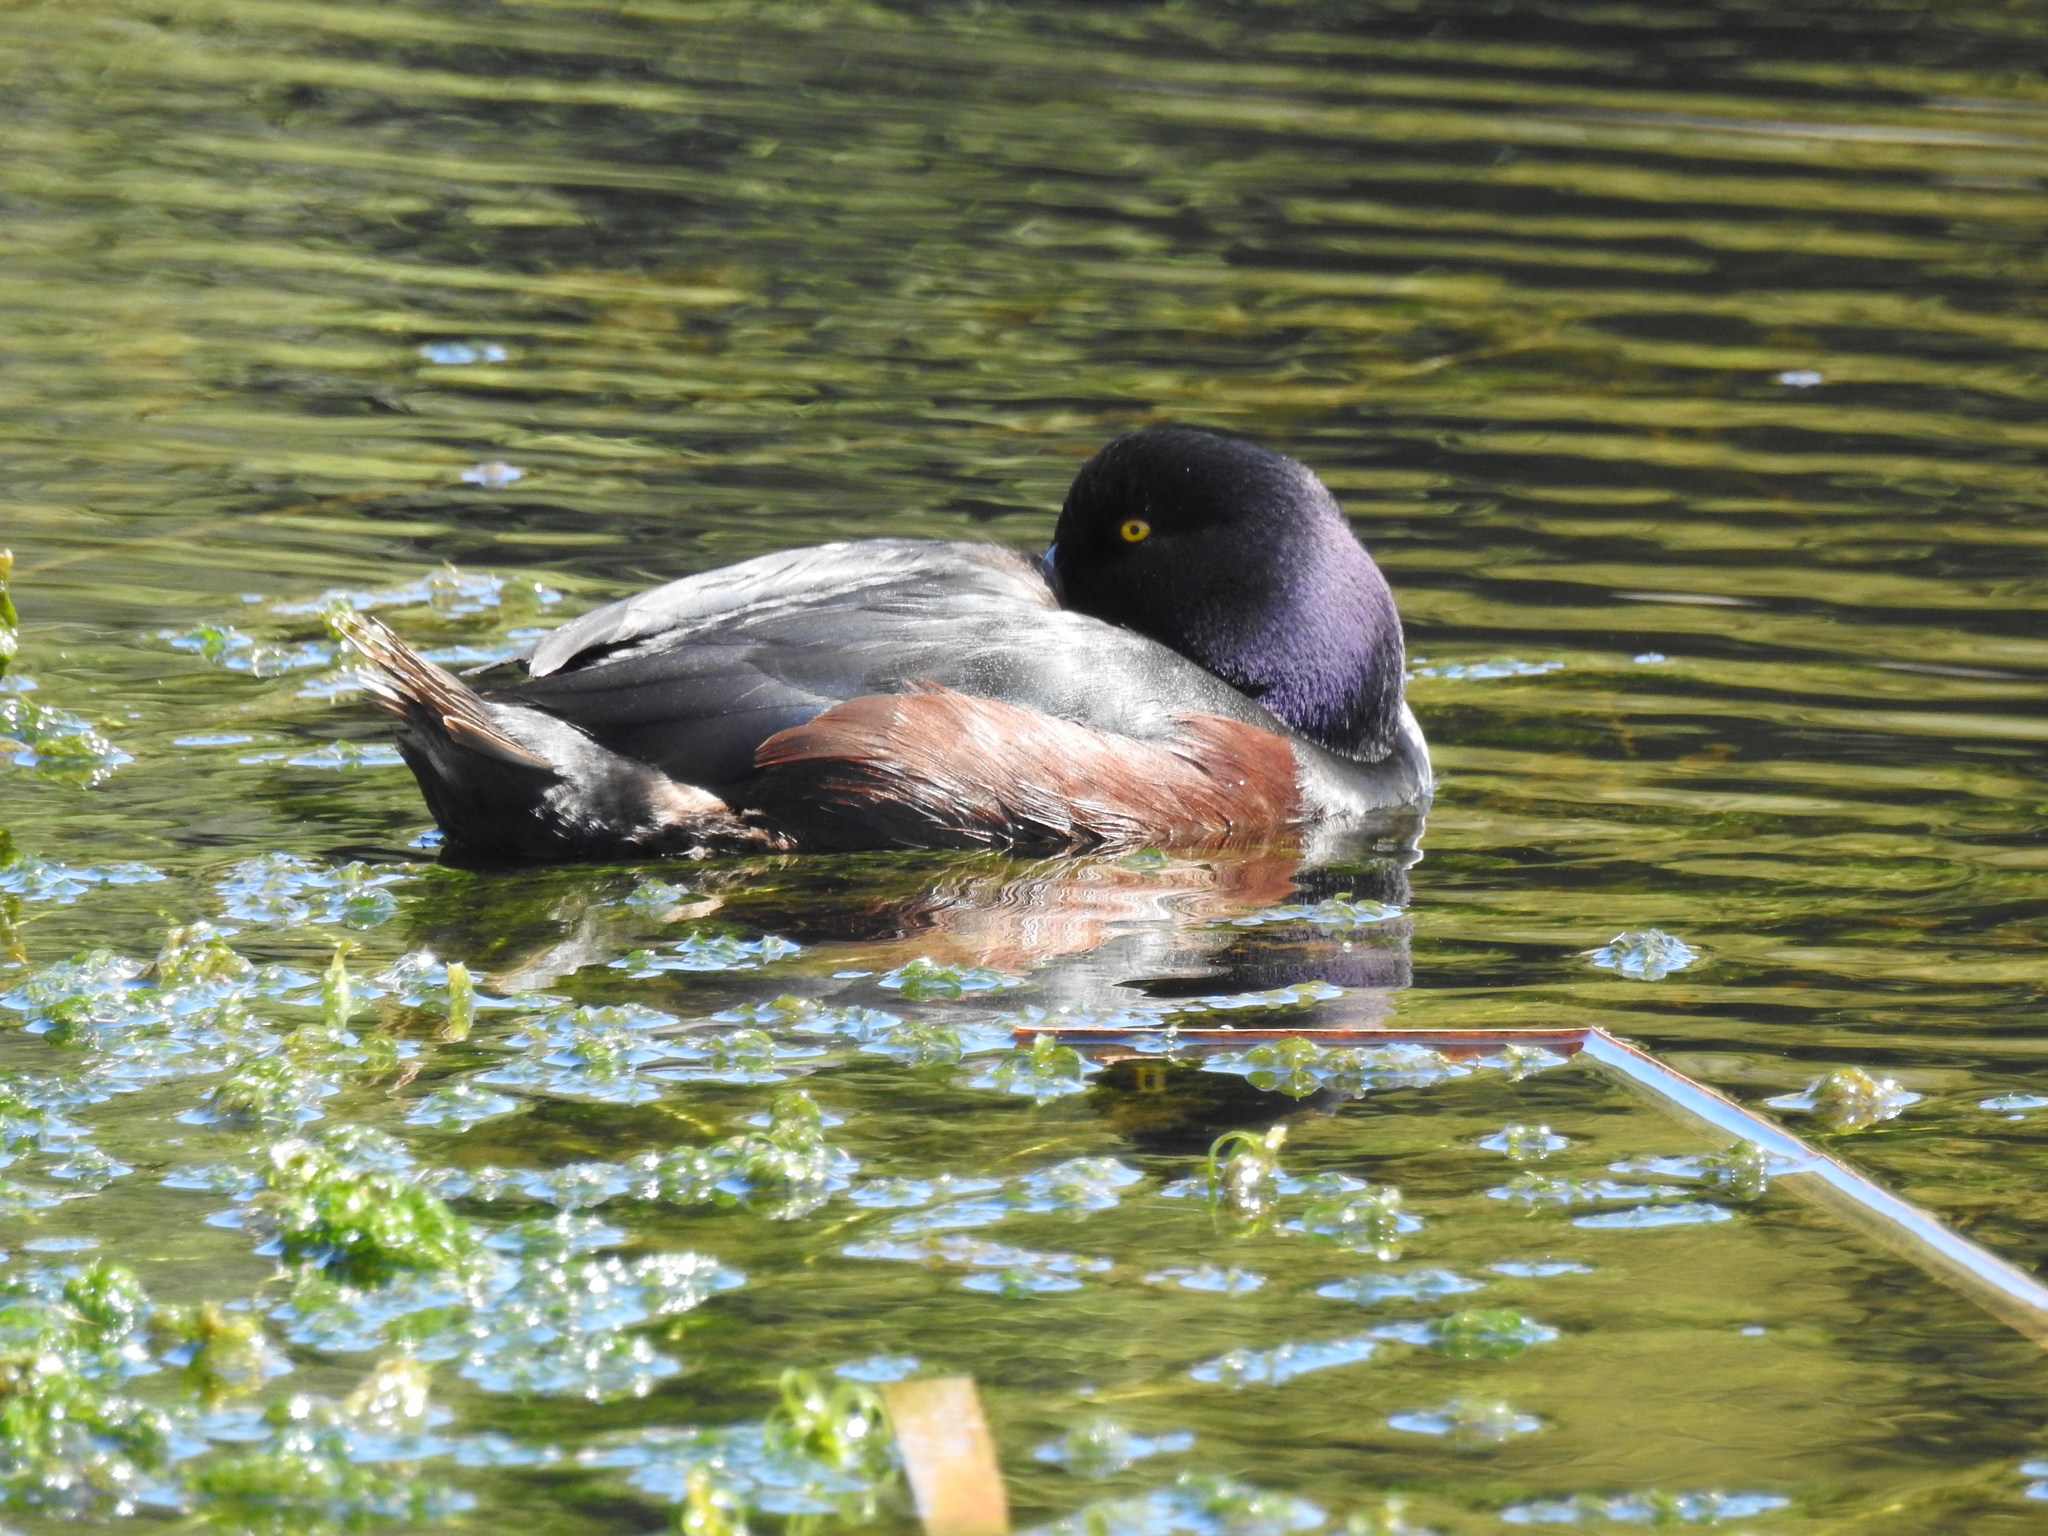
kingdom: Animalia
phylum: Chordata
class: Aves
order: Anseriformes
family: Anatidae
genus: Aythya
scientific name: Aythya novaeseelandiae
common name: New zealand scaup
